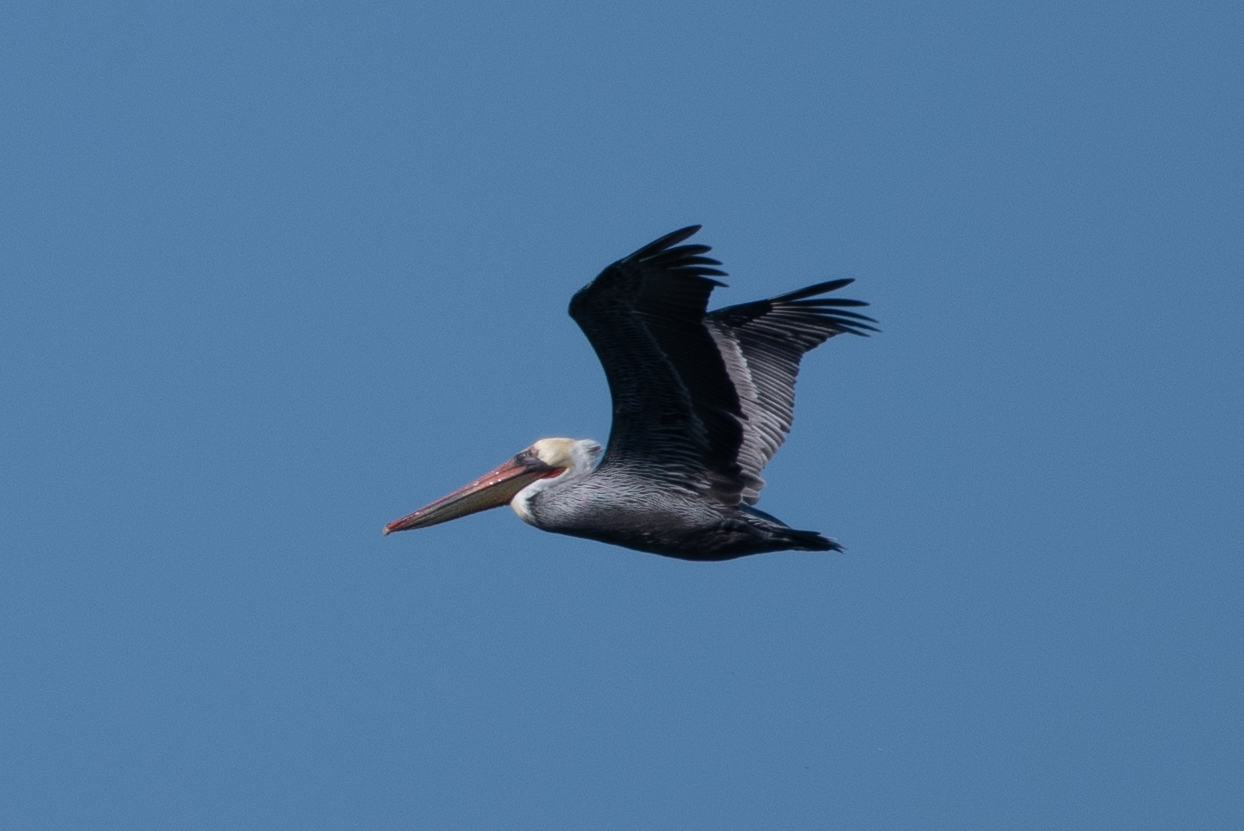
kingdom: Animalia
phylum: Chordata
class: Aves
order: Pelecaniformes
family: Pelecanidae
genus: Pelecanus
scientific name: Pelecanus occidentalis
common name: Brown pelican
